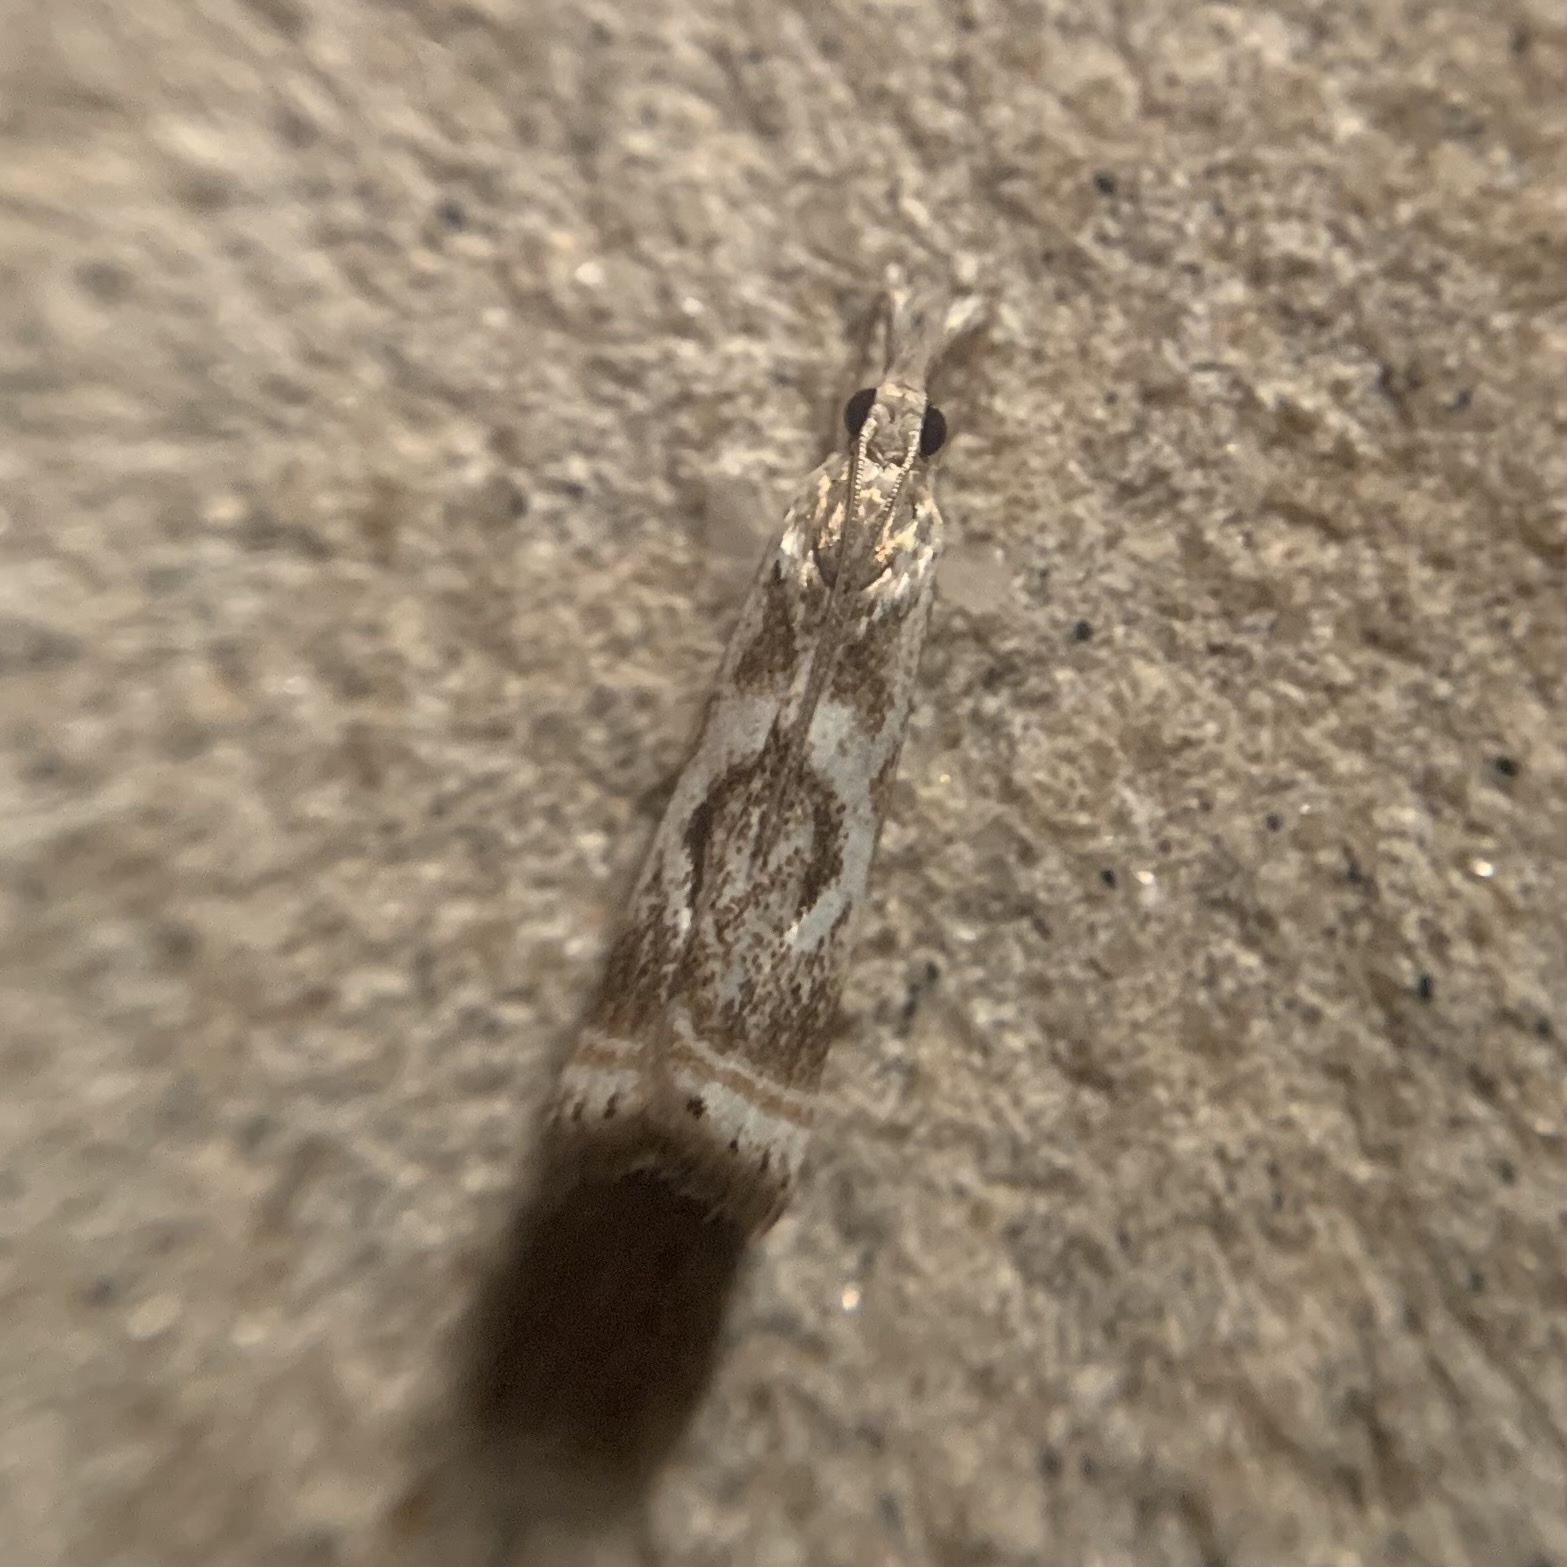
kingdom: Animalia
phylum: Arthropoda
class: Insecta
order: Lepidoptera
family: Crambidae
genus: Microcrambus
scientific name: Microcrambus elegans
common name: Elegant grass-veneer
